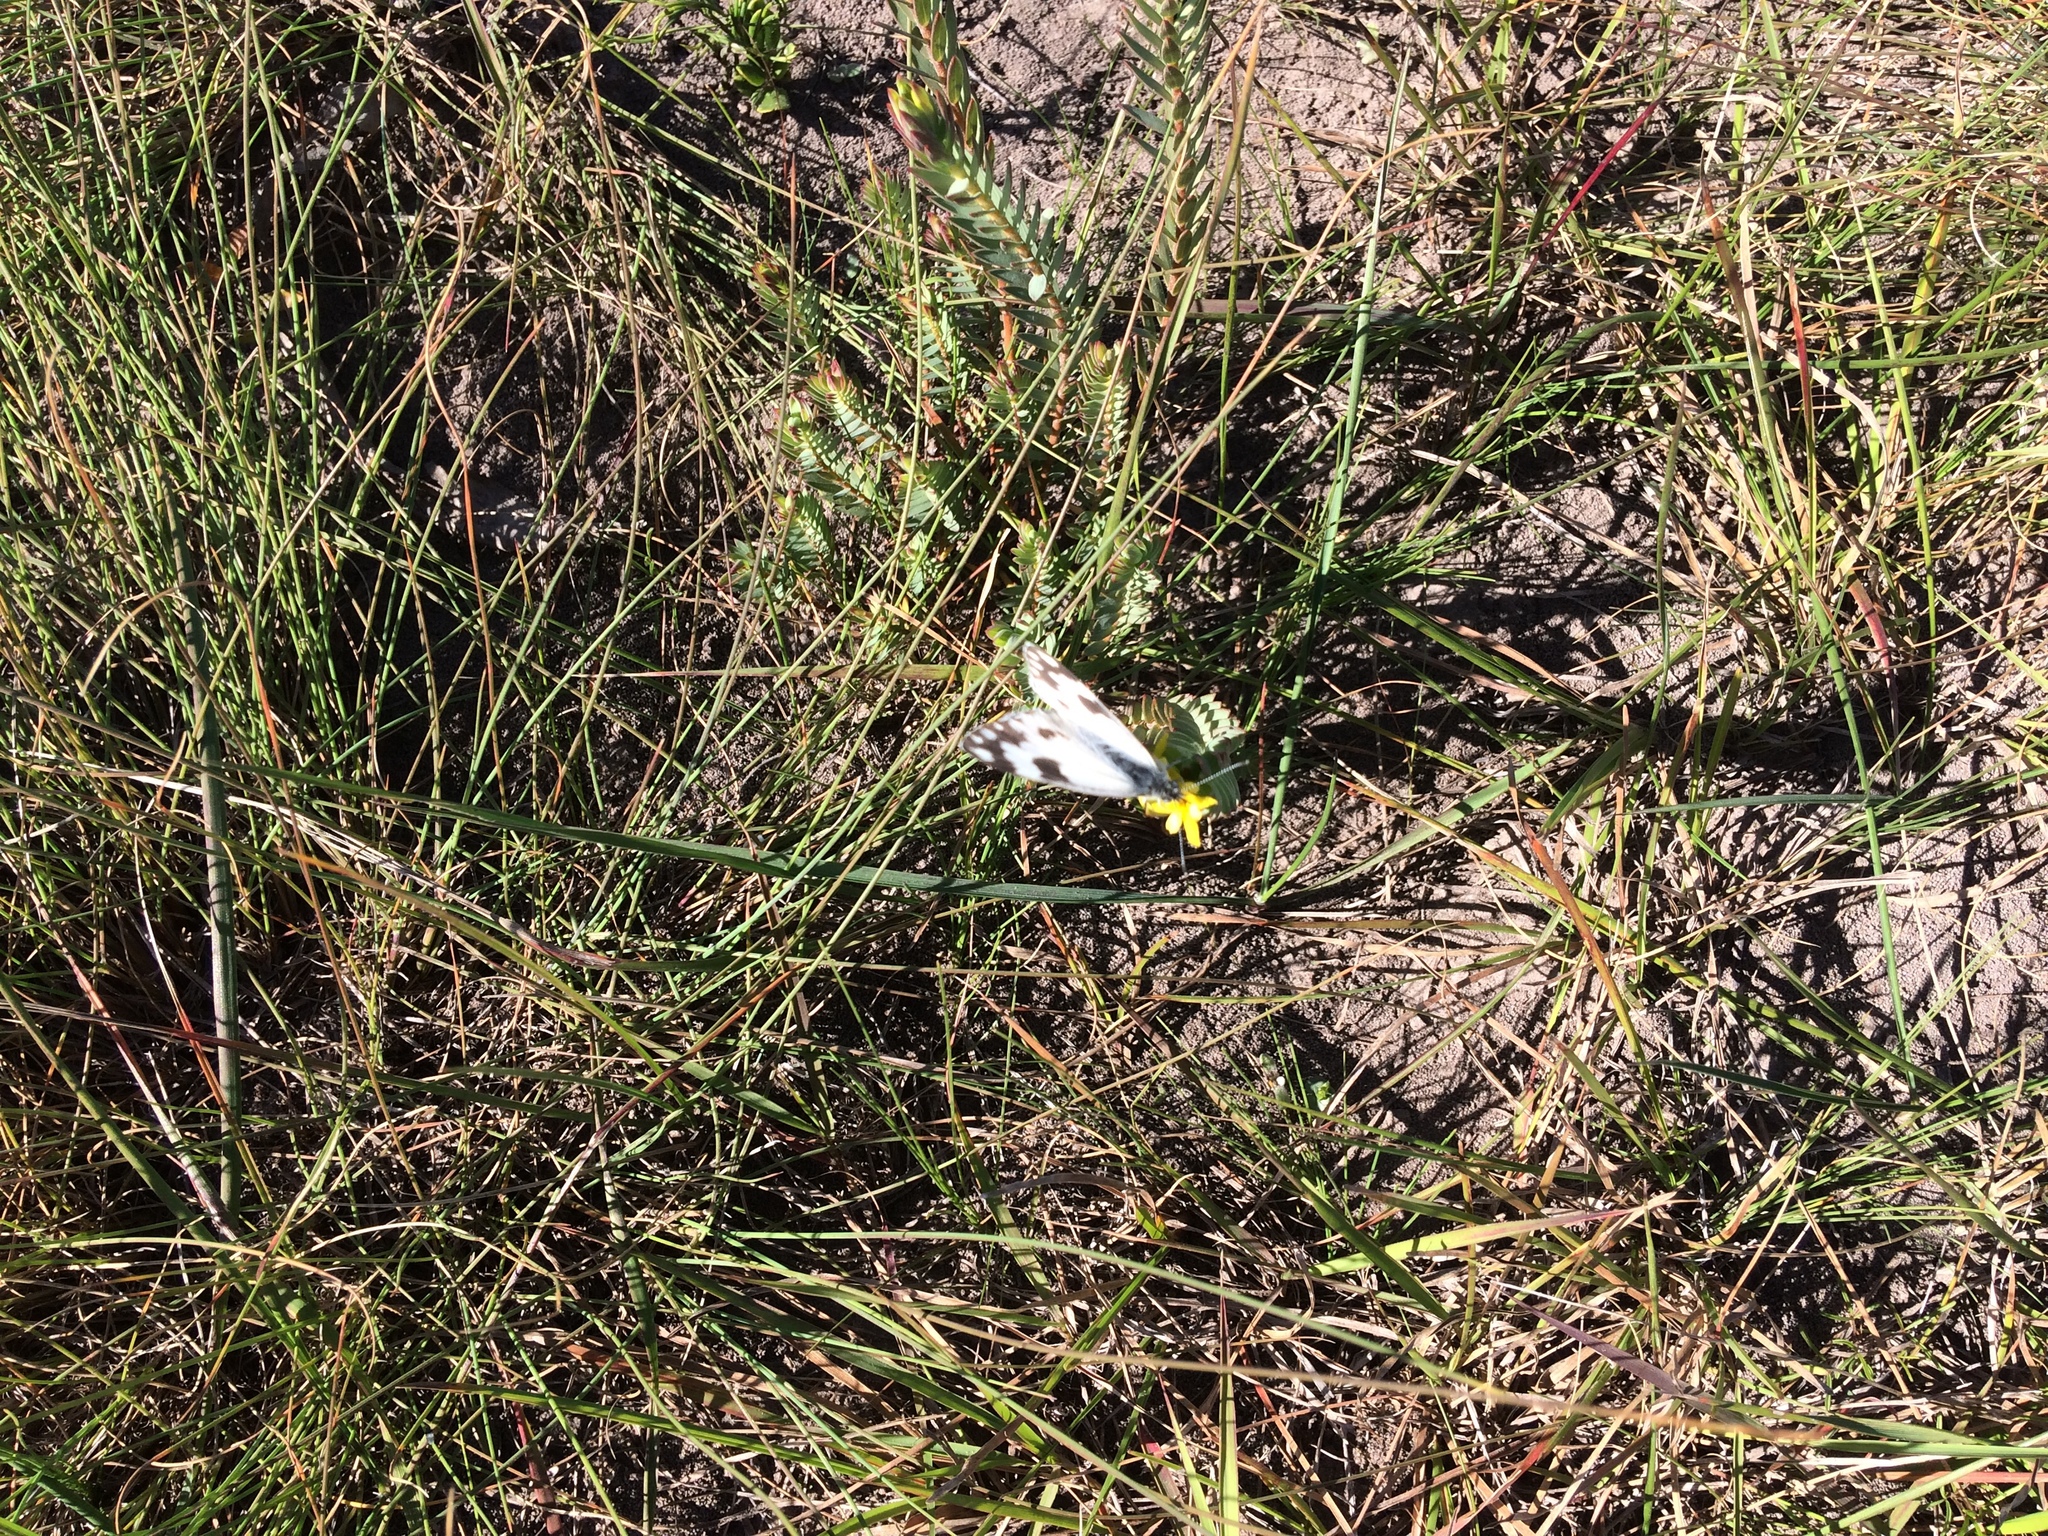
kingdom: Animalia
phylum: Arthropoda
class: Insecta
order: Lepidoptera
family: Pieridae
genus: Pontia
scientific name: Pontia helice
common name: Meadow white
